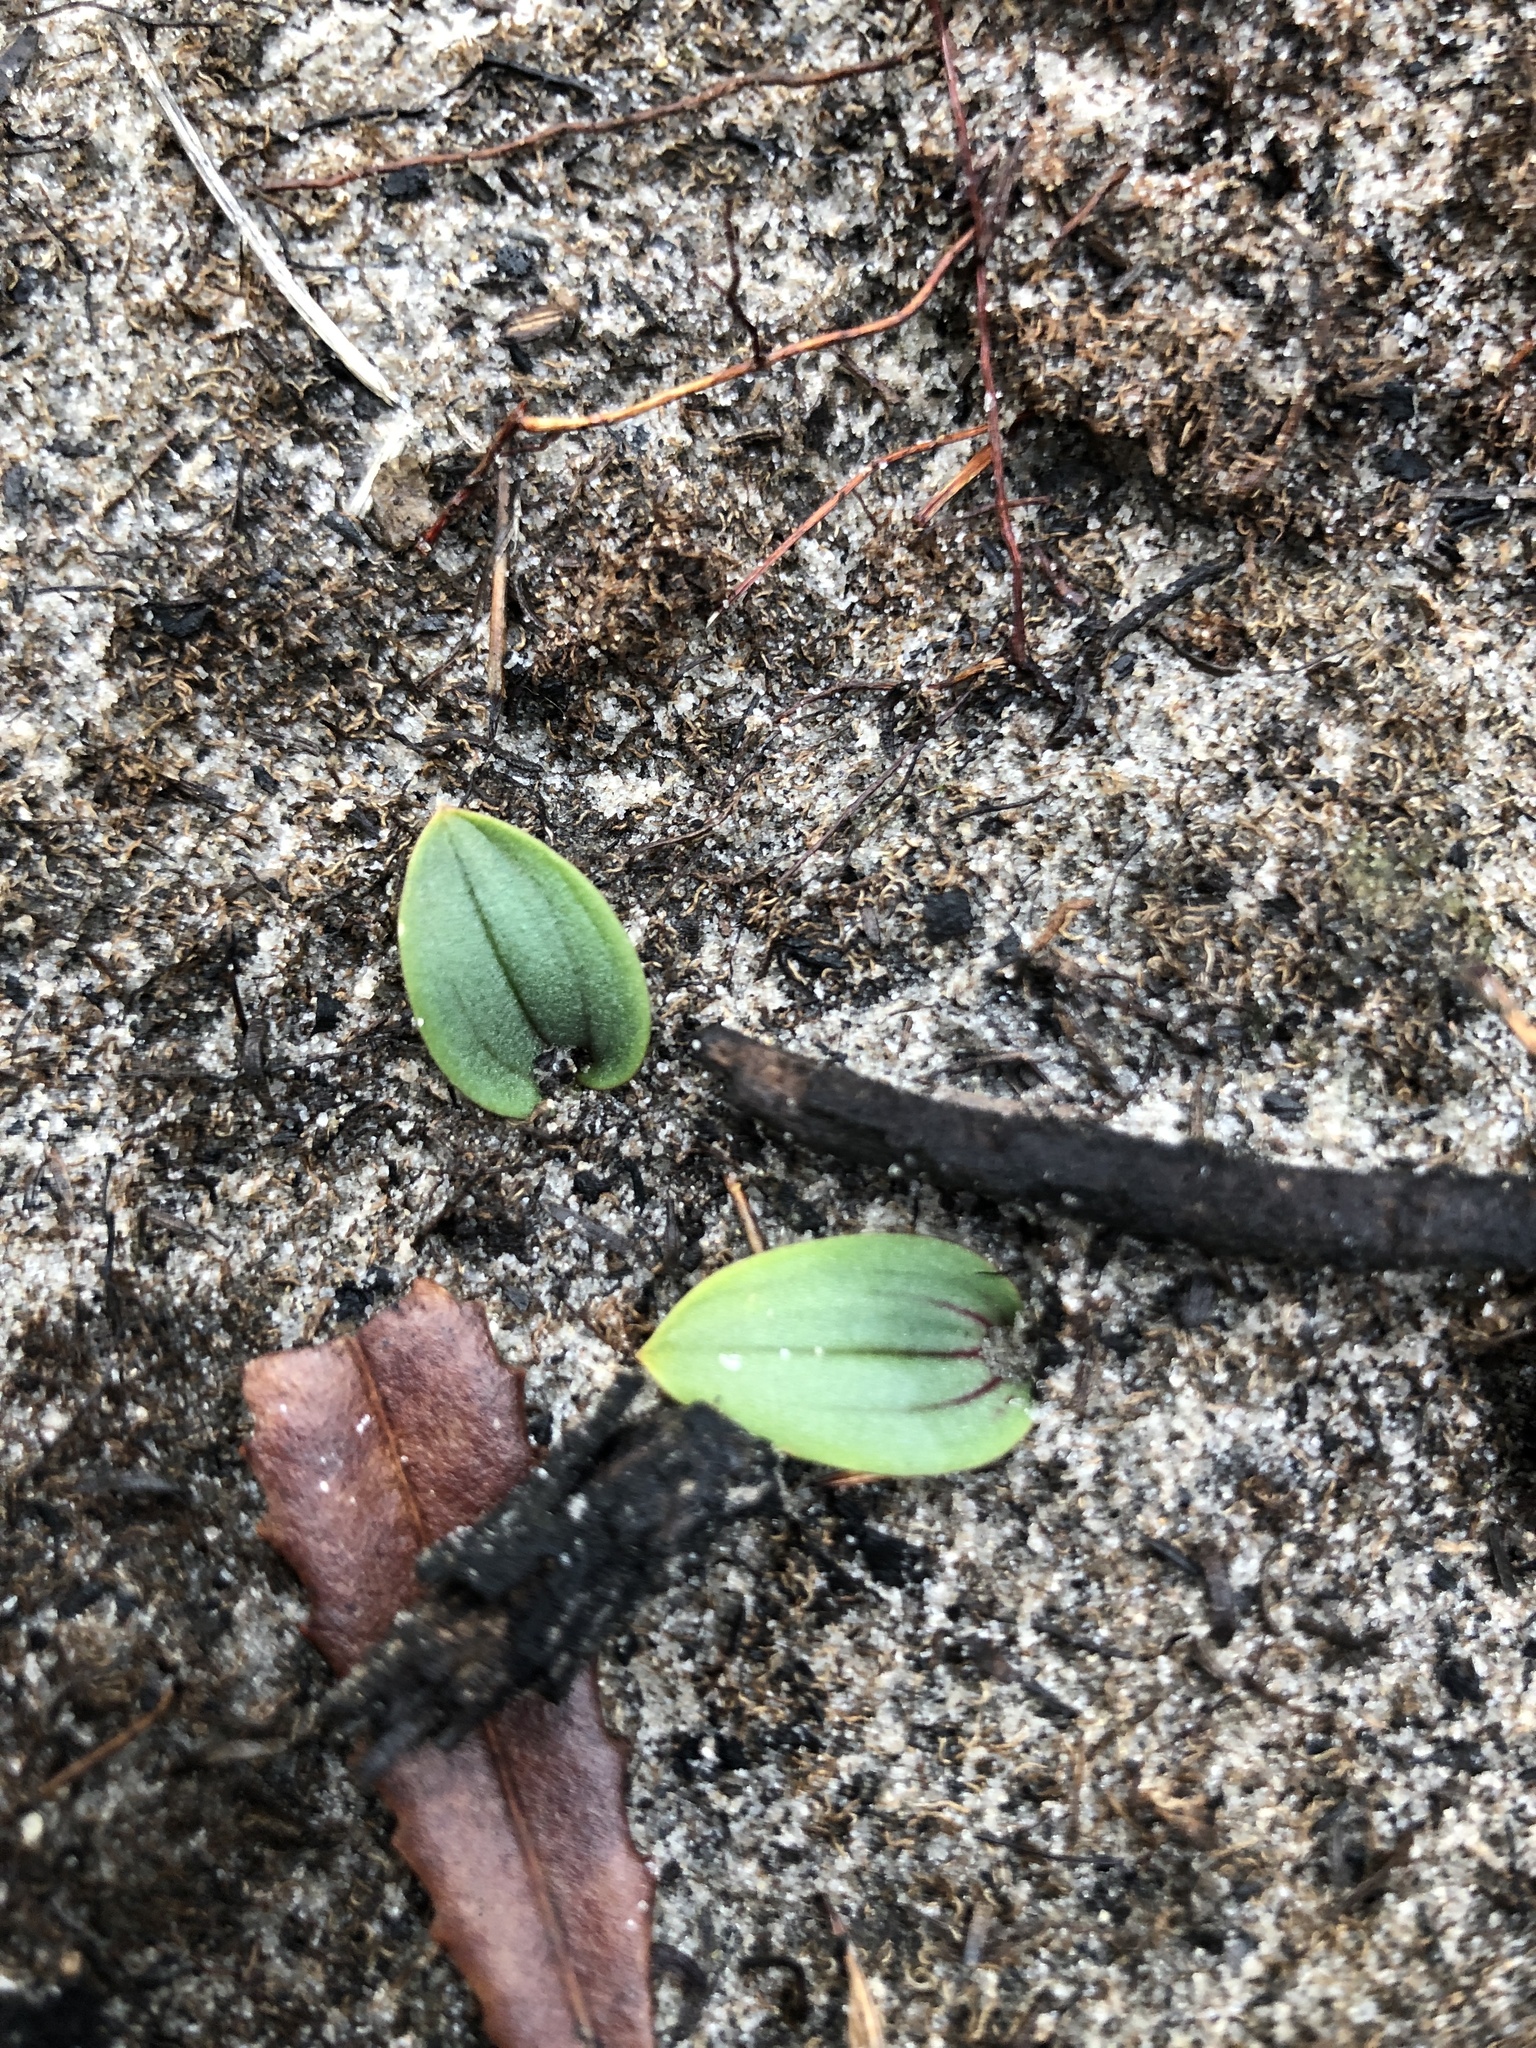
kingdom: Plantae
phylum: Tracheophyta
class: Liliopsida
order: Asparagales
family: Orchidaceae
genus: Leporella
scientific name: Leporella fimbriata
